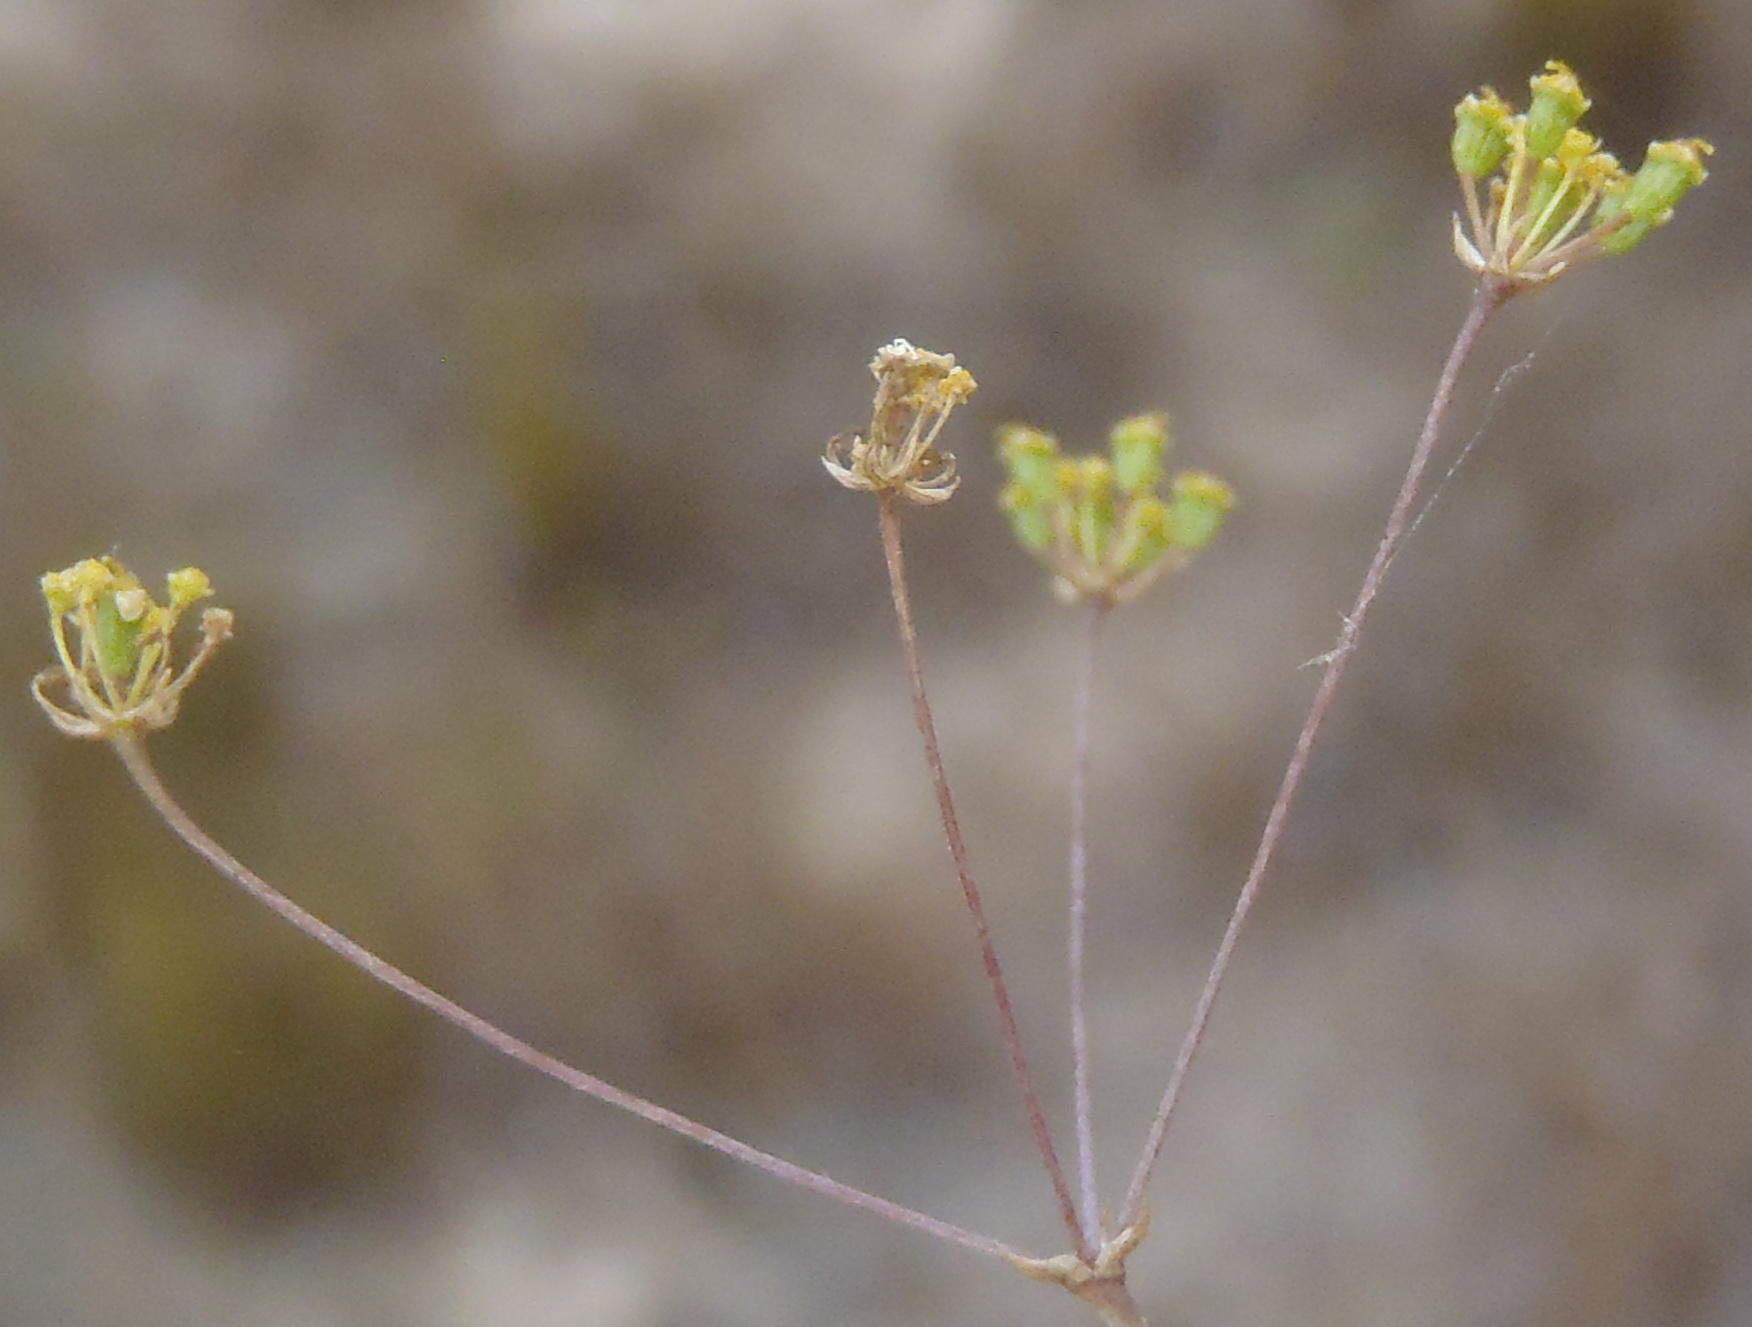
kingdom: Plantae
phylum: Tracheophyta
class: Magnoliopsida
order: Apiales
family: Apiaceae
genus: Chamarea
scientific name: Chamarea capensis
